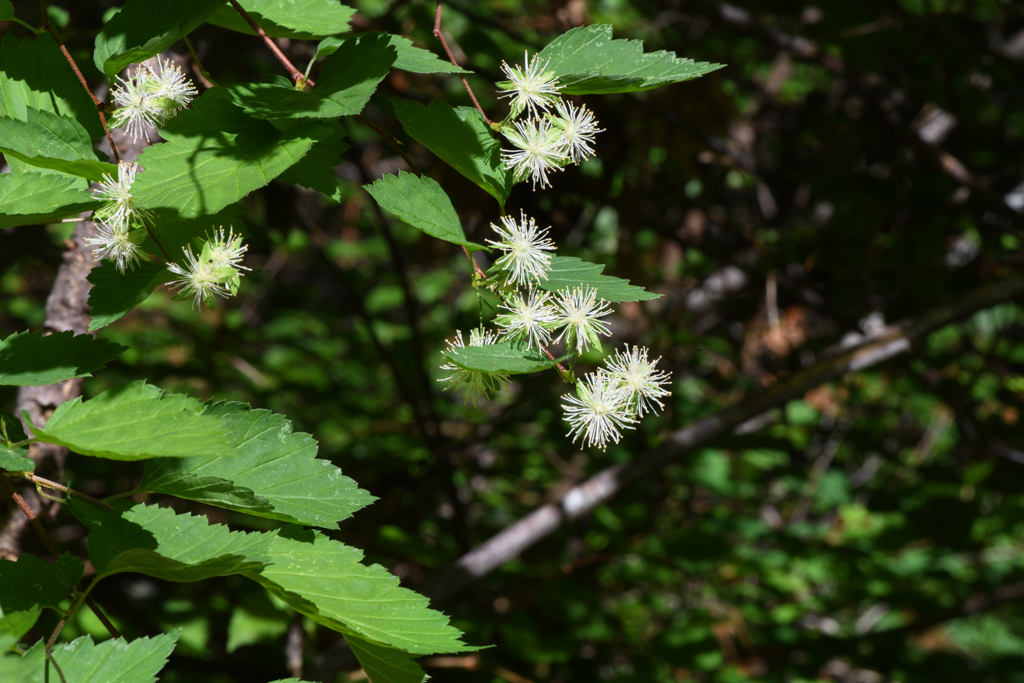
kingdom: Plantae
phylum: Tracheophyta
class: Magnoliopsida
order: Rosales
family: Rosaceae
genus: Neviusia
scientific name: Neviusia cliftonii
